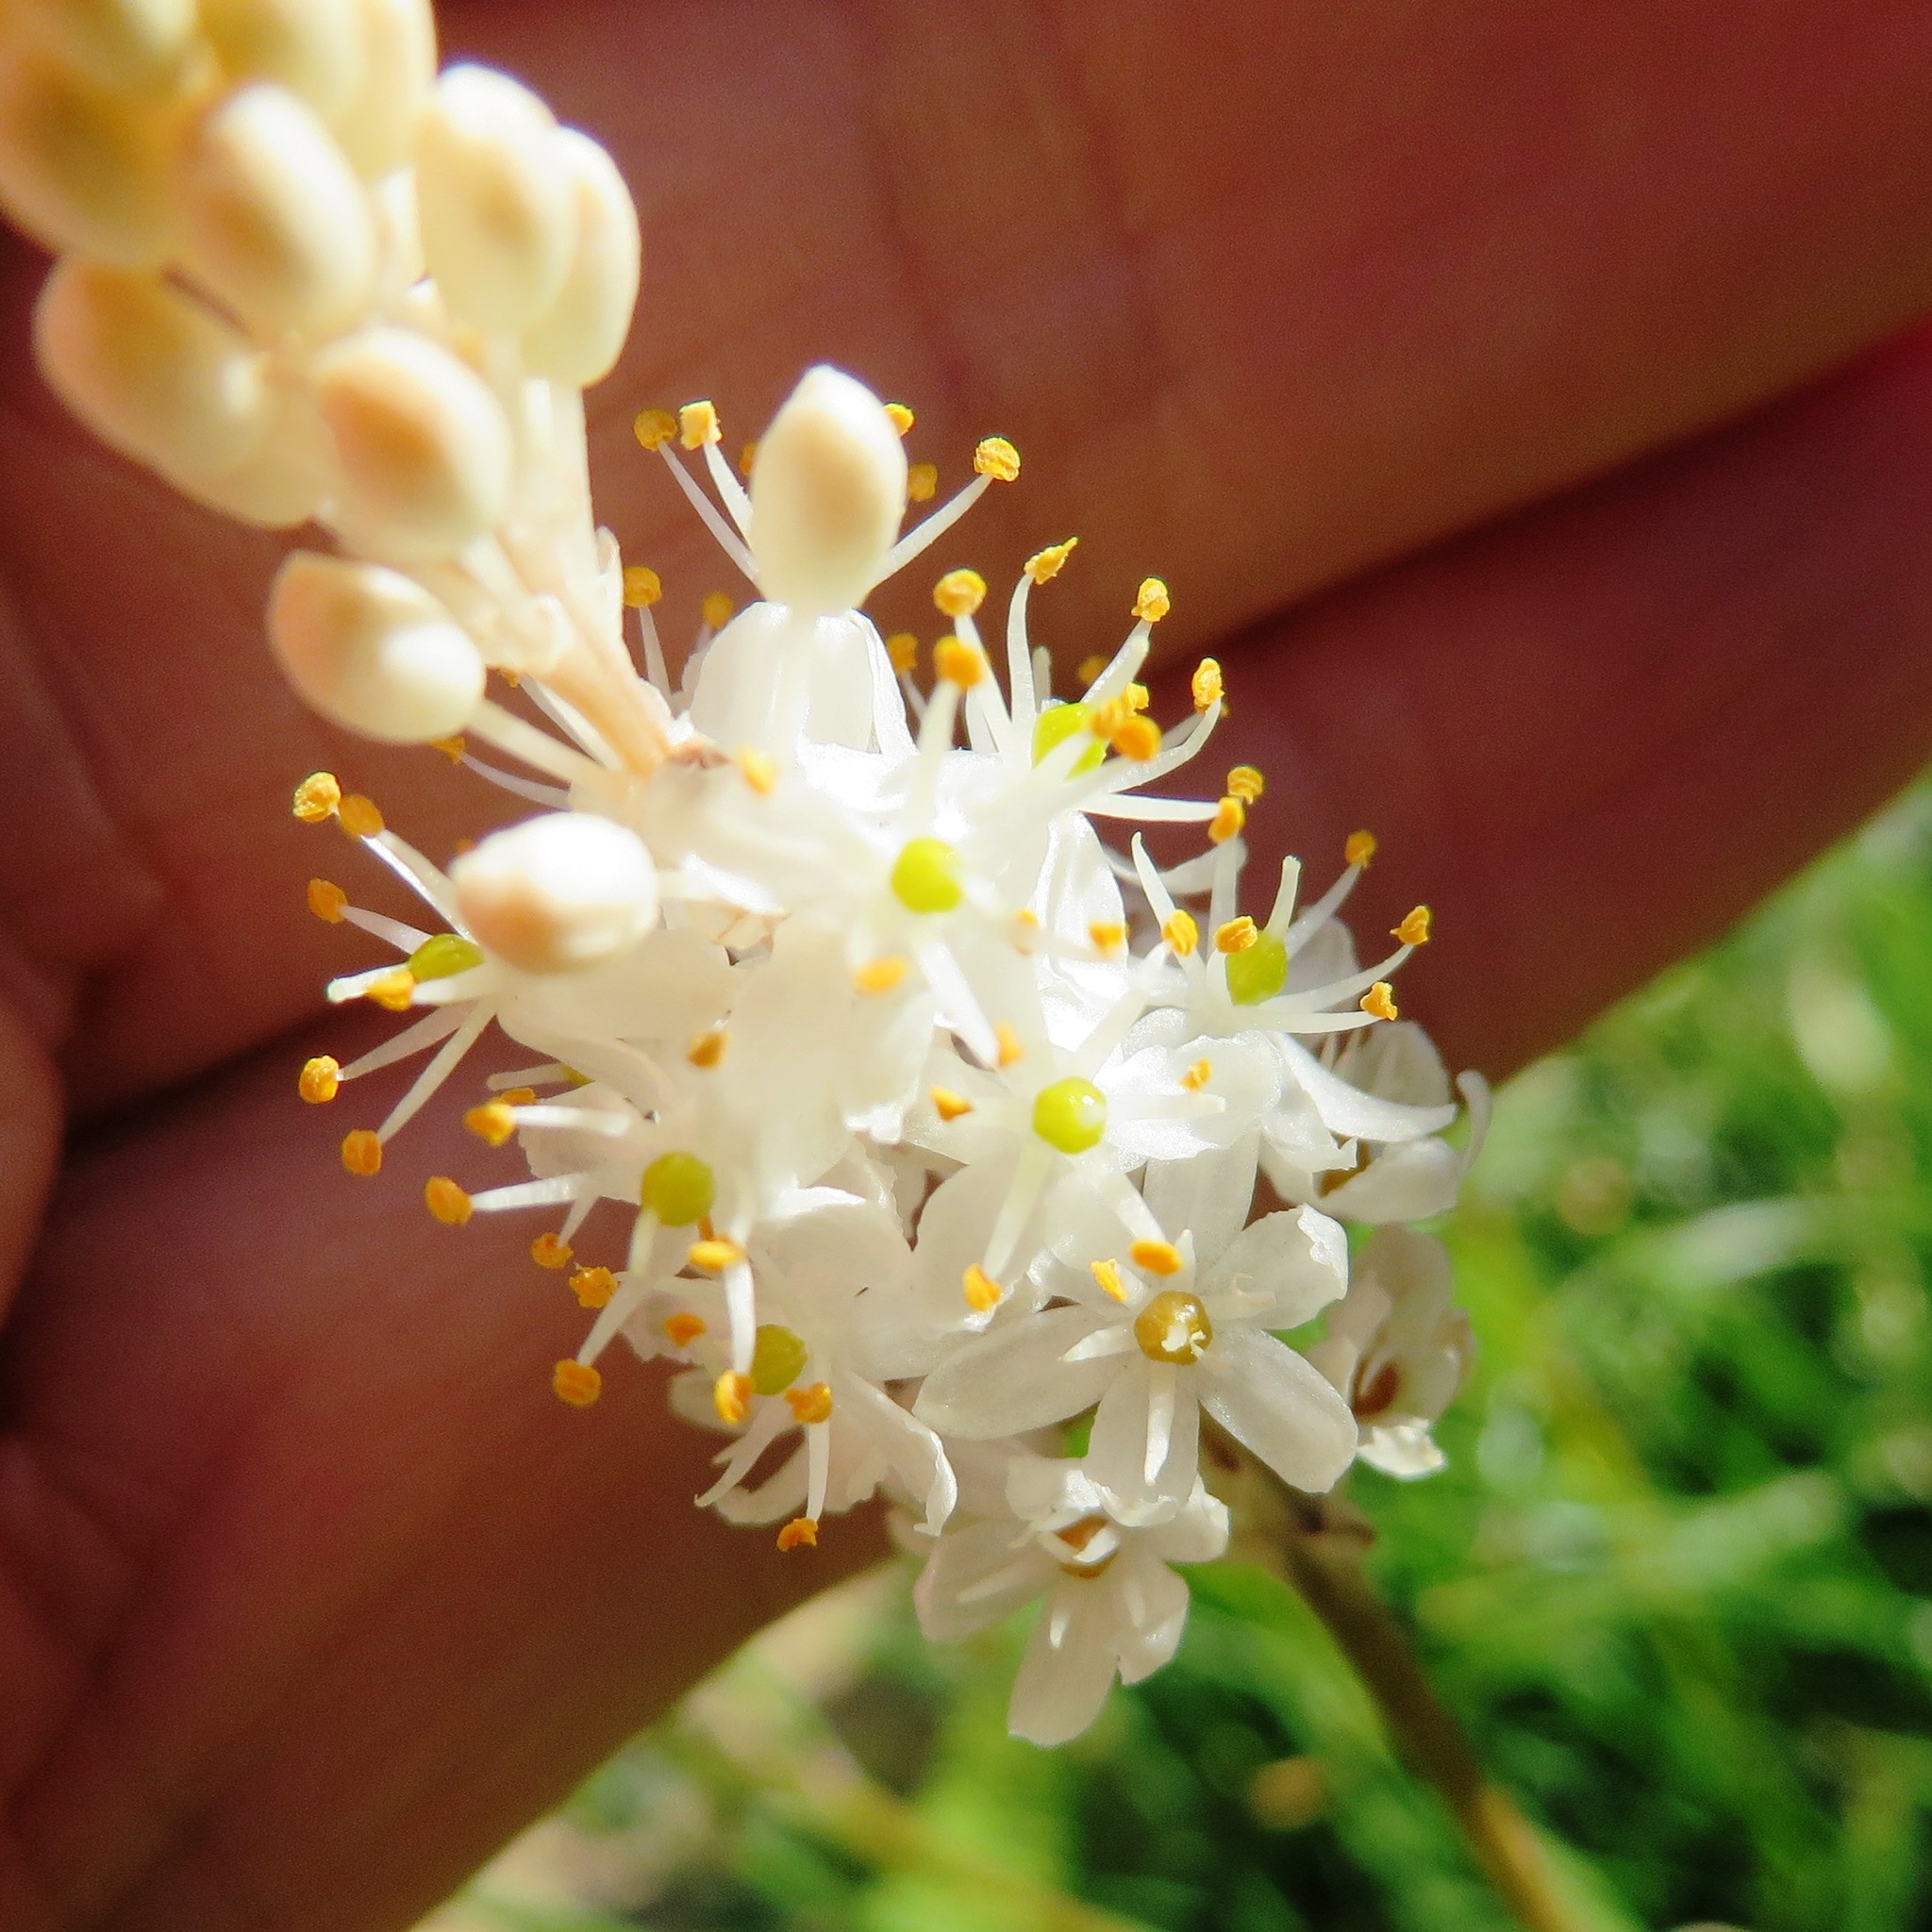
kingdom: Plantae
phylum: Tracheophyta
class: Liliopsida
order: Asparagales
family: Asphodelaceae
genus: Bulbinella
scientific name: Bulbinella trinervis
